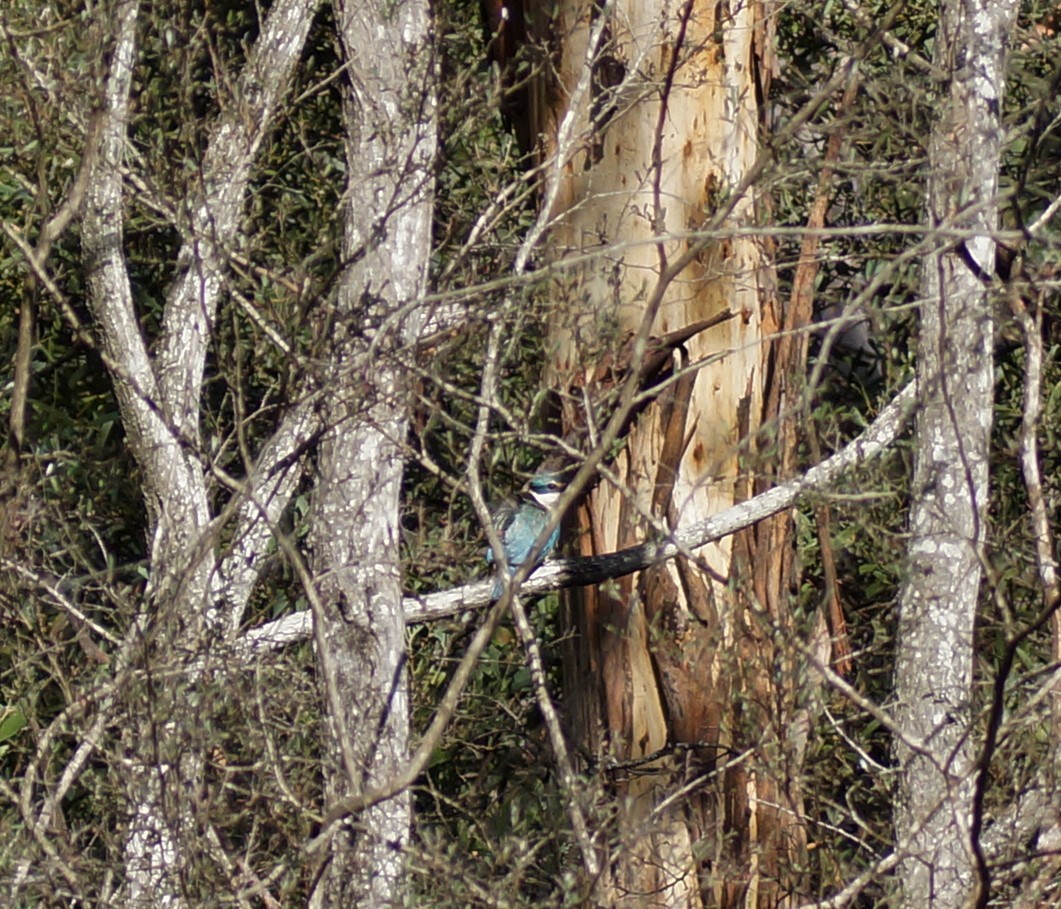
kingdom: Animalia
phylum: Chordata
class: Aves
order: Coraciiformes
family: Alcedinidae
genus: Todiramphus
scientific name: Todiramphus sanctus
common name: Sacred kingfisher
